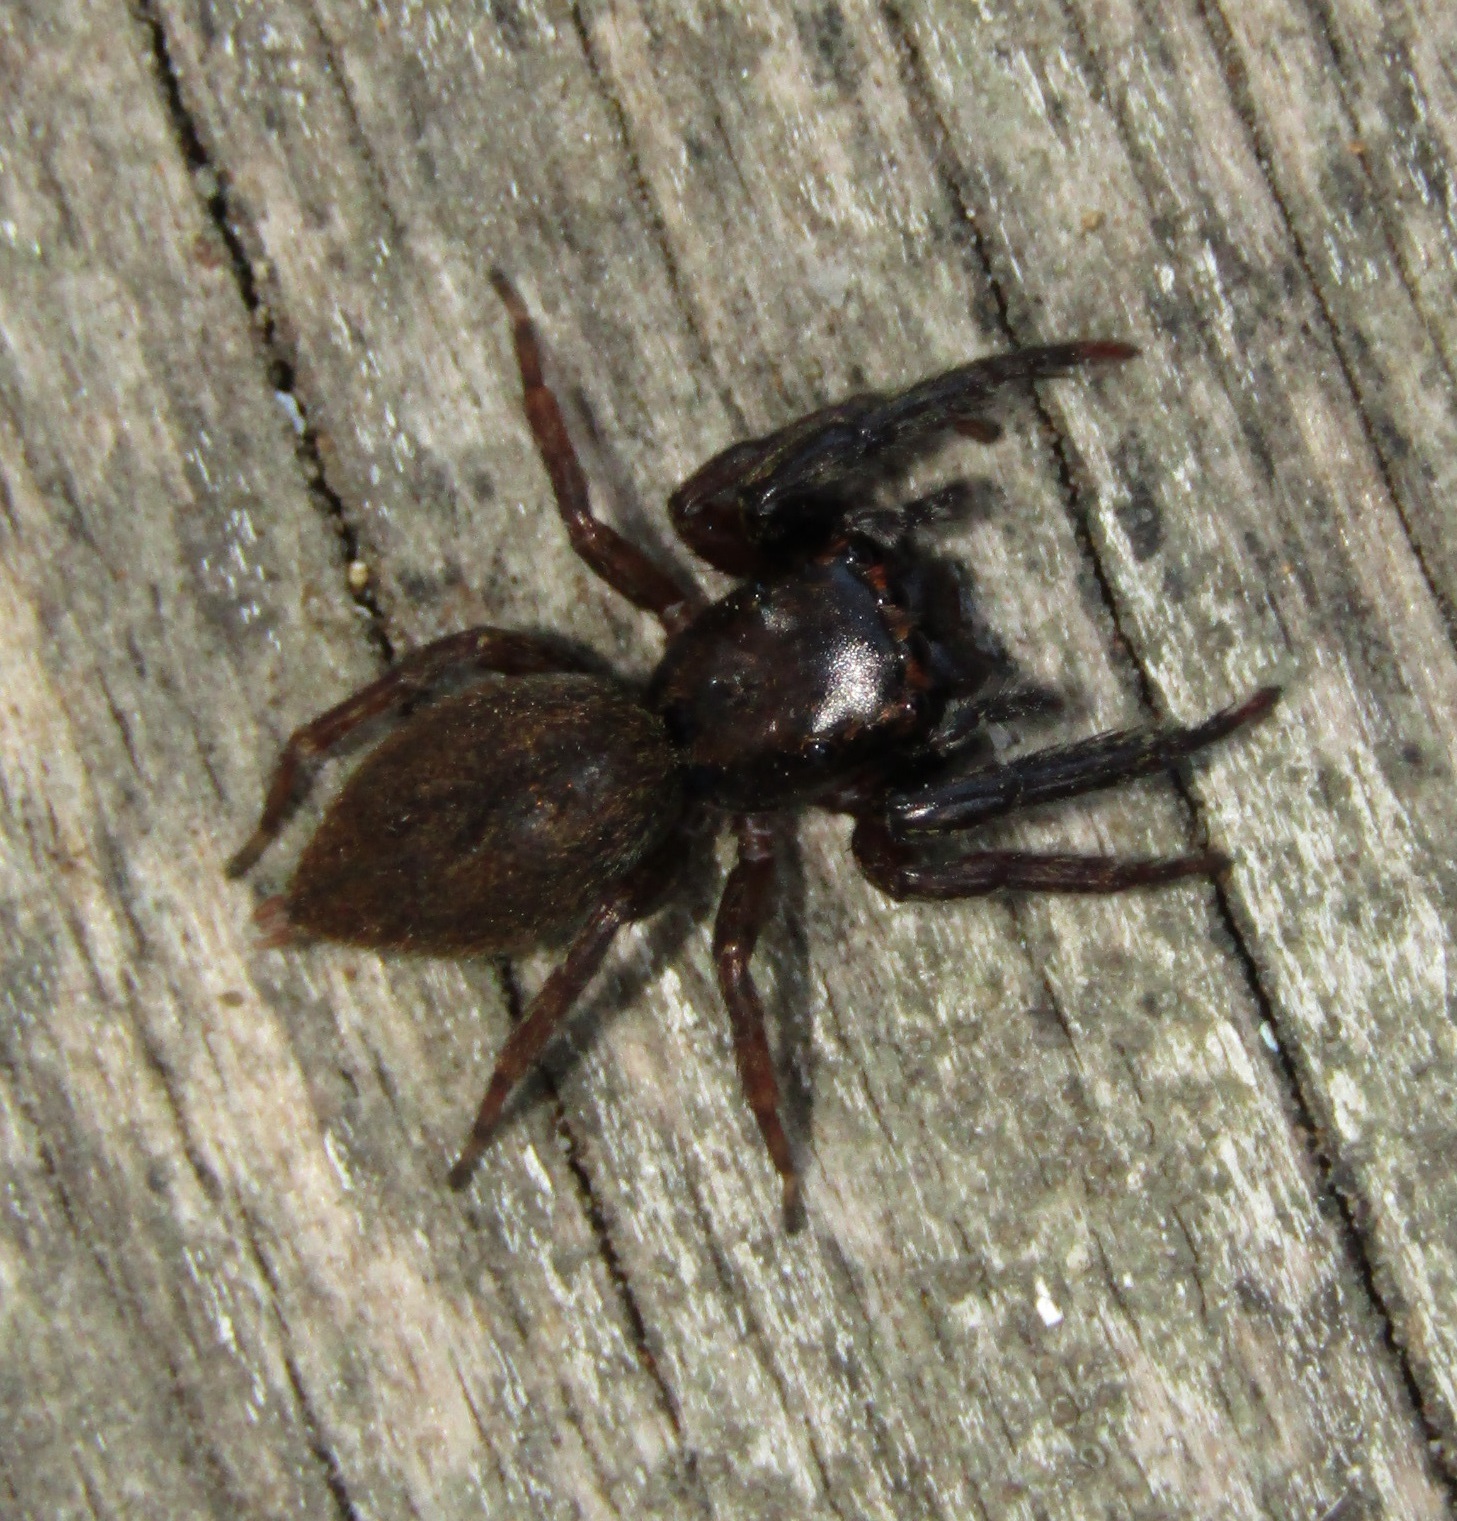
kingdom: Animalia
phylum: Arthropoda
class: Arachnida
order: Araneae
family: Salticidae
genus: Trite
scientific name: Trite auricoma
